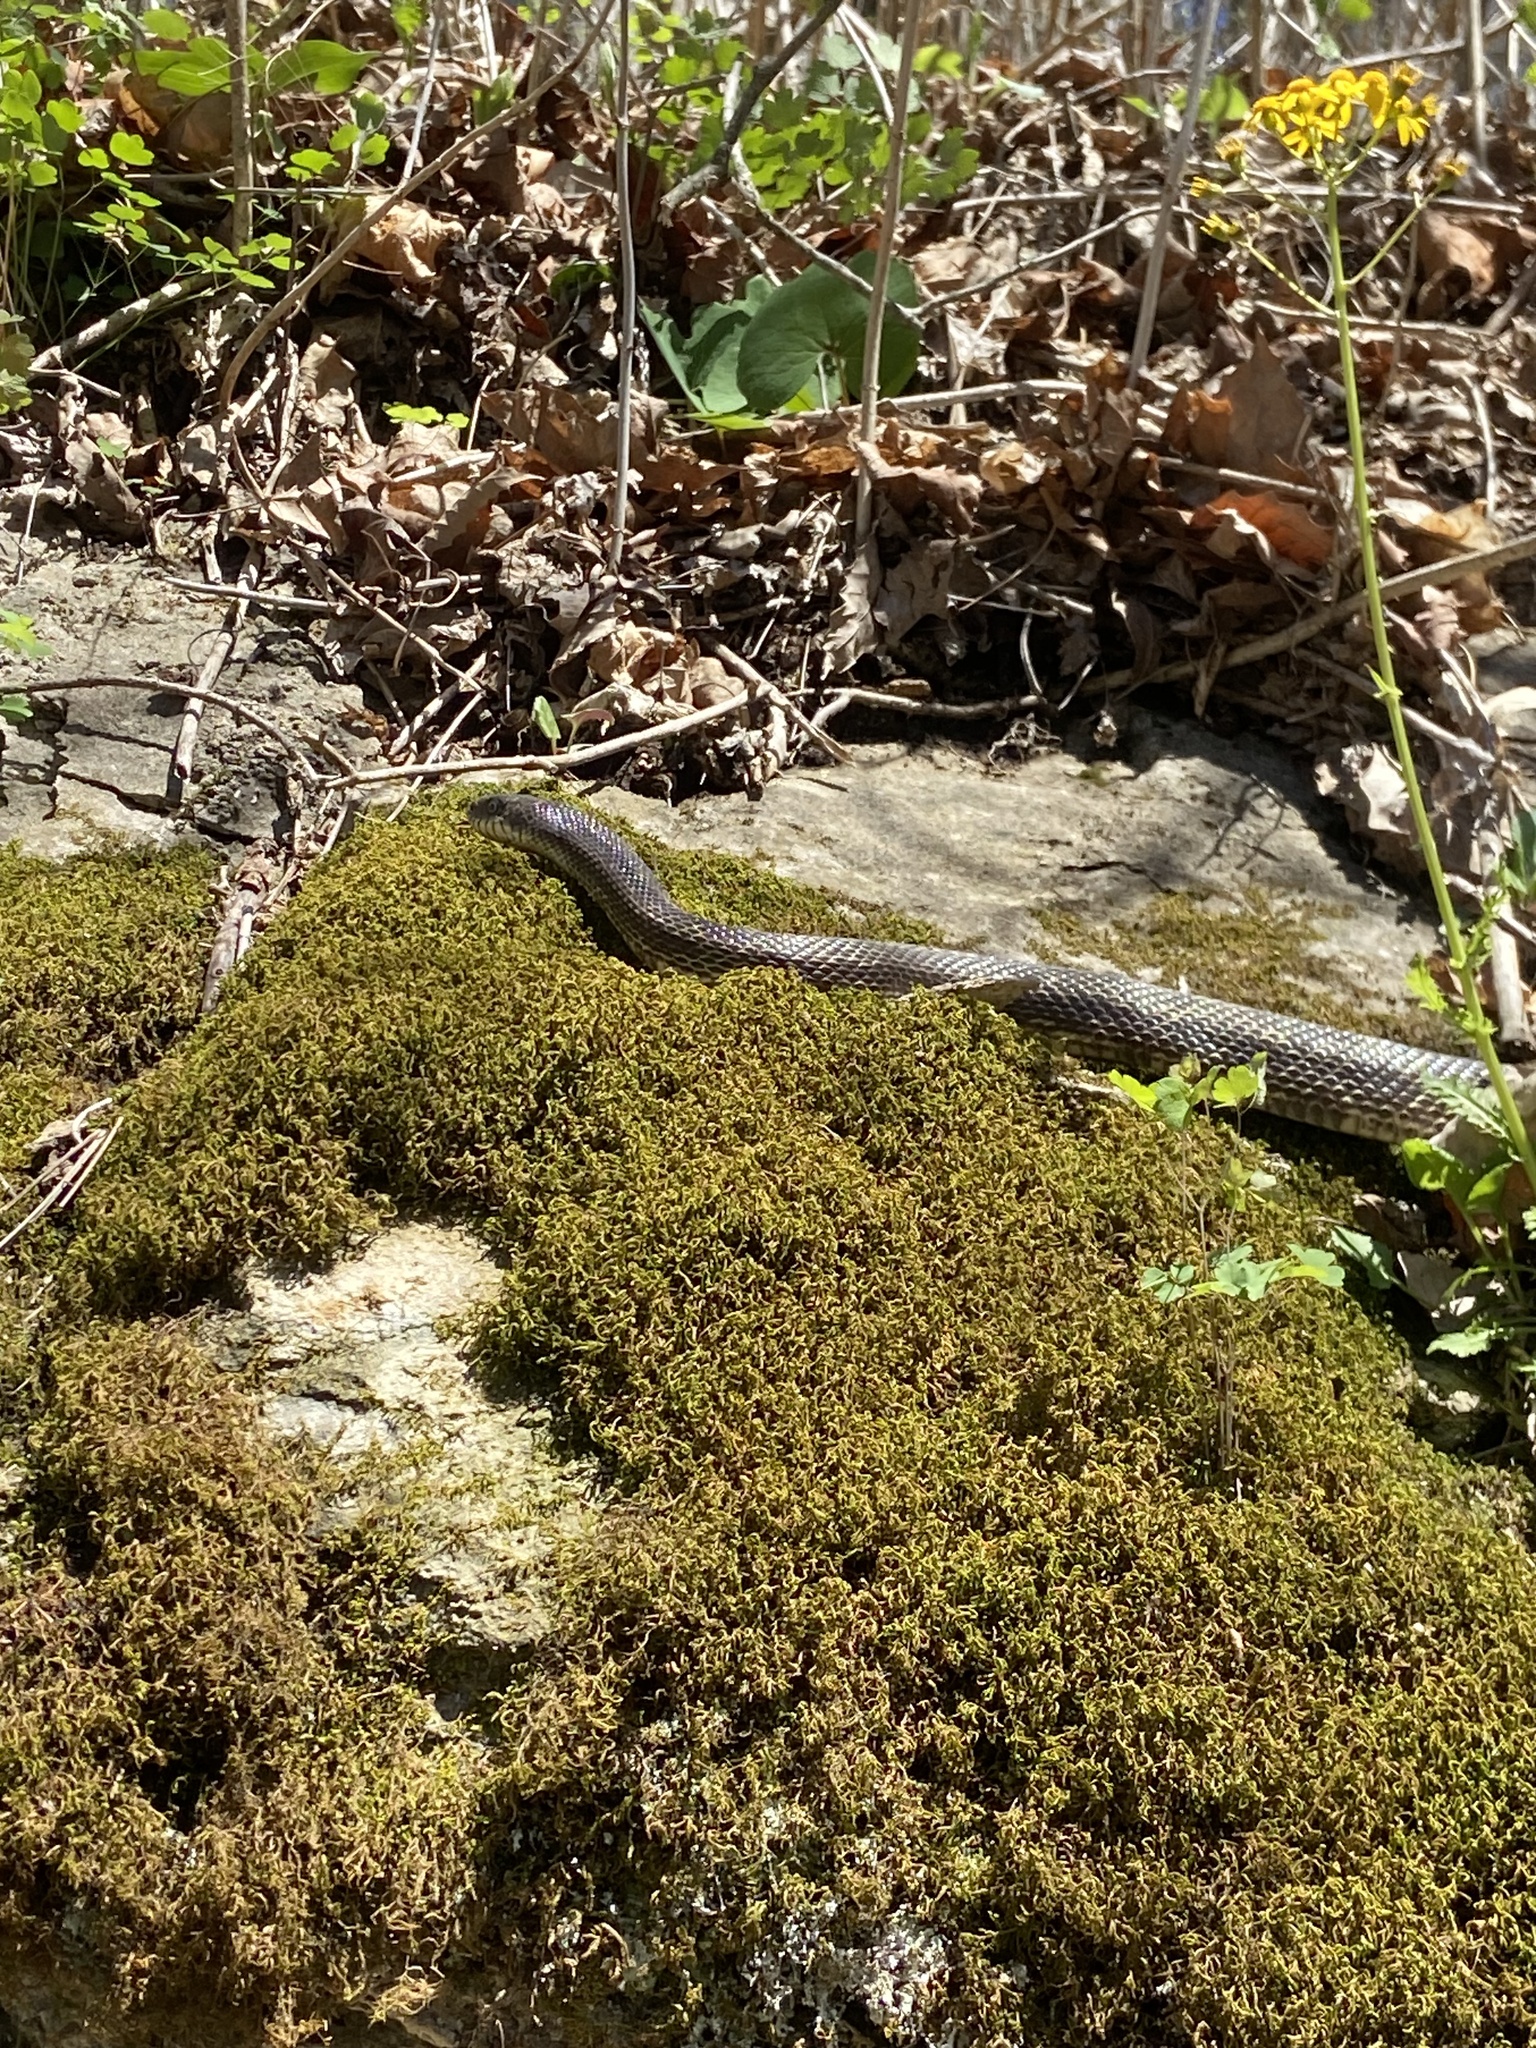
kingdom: Animalia
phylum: Chordata
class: Squamata
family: Colubridae
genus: Pantherophis
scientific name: Pantherophis spiloides
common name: Gray rat snake
